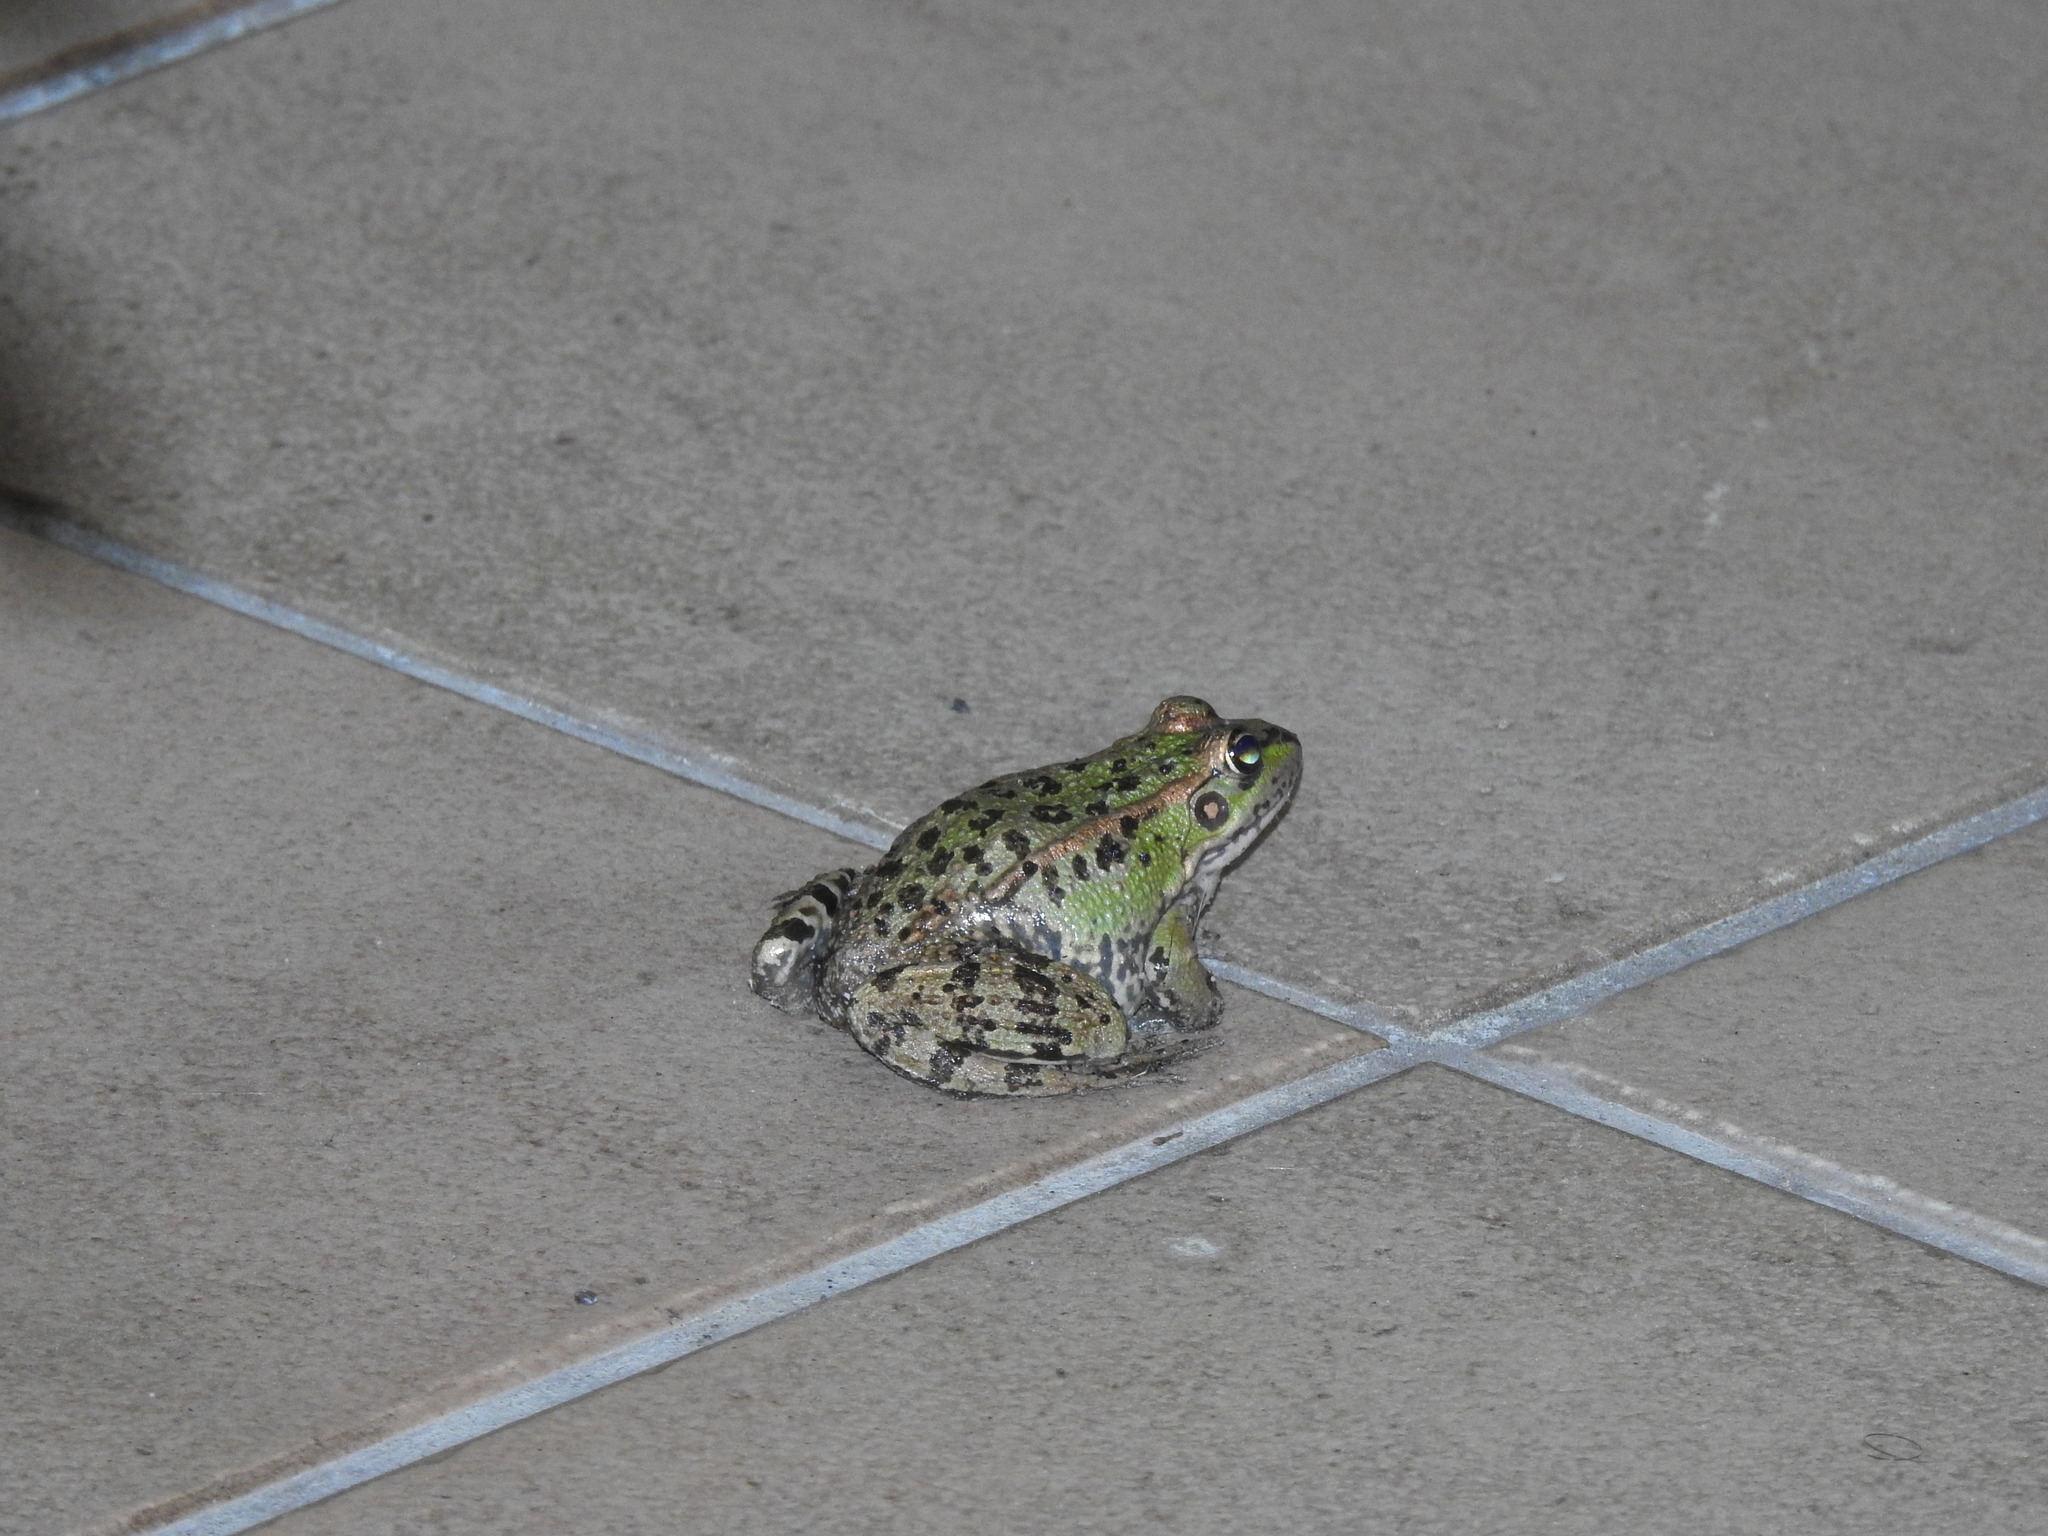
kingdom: Animalia
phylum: Chordata
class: Amphibia
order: Anura
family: Ranidae
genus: Pelophylax
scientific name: Pelophylax perezi
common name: Perez's frog
